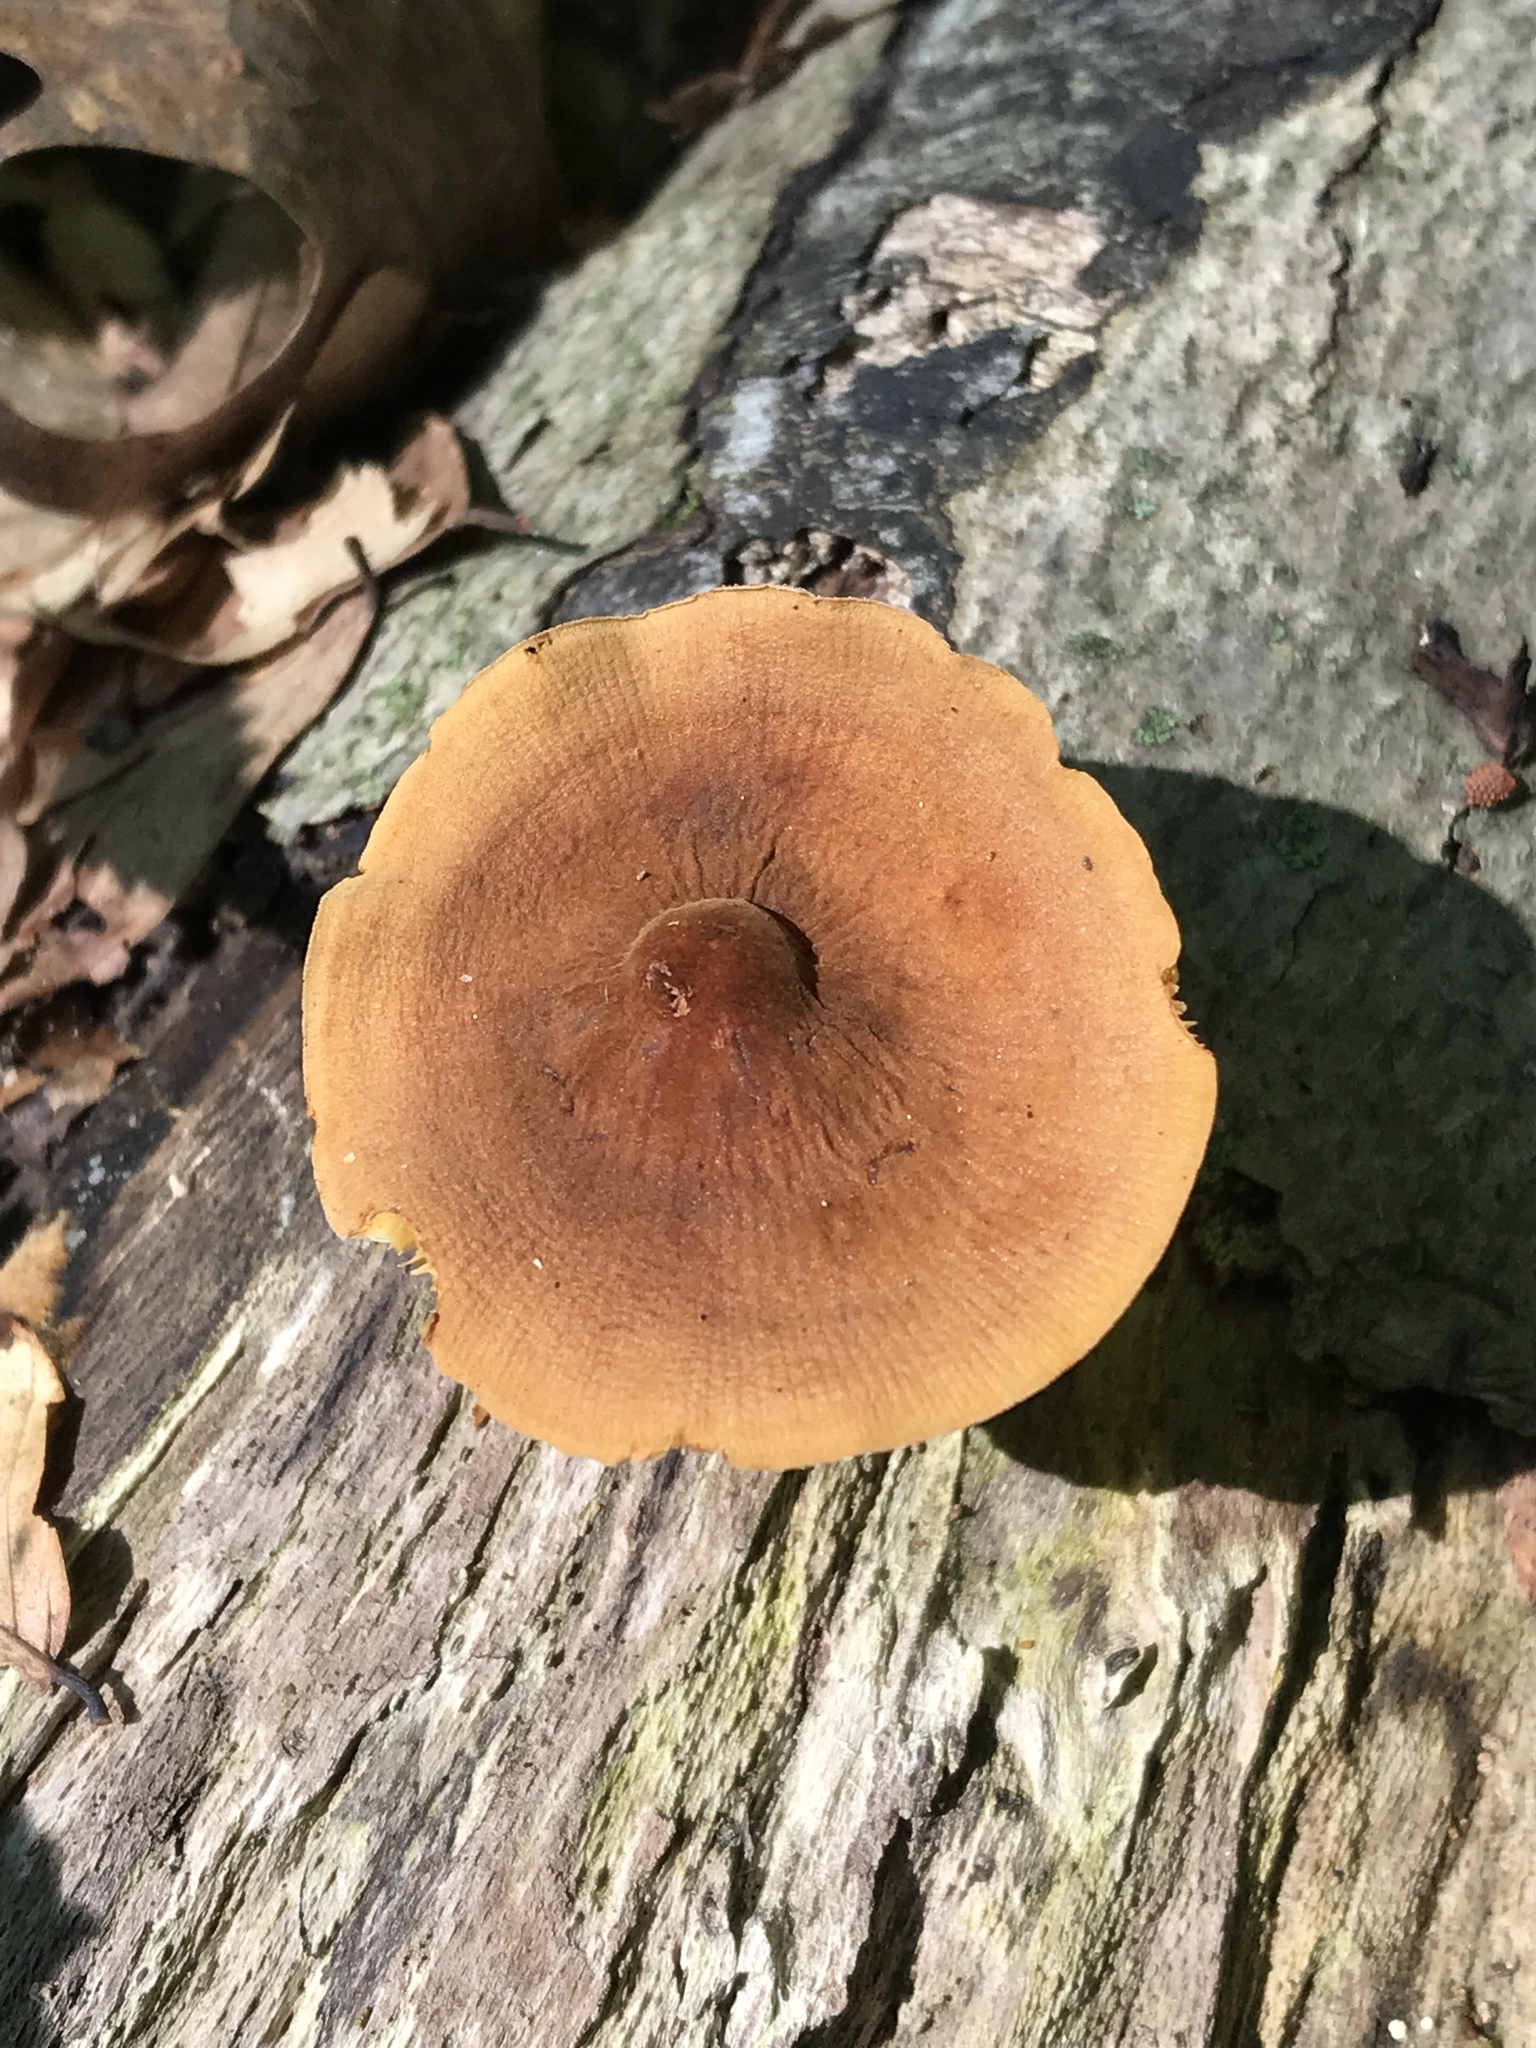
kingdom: Fungi
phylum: Basidiomycota
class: Agaricomycetes
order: Agaricales
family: Mycenaceae
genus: Xeromphalina
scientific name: Xeromphalina tenuipes
